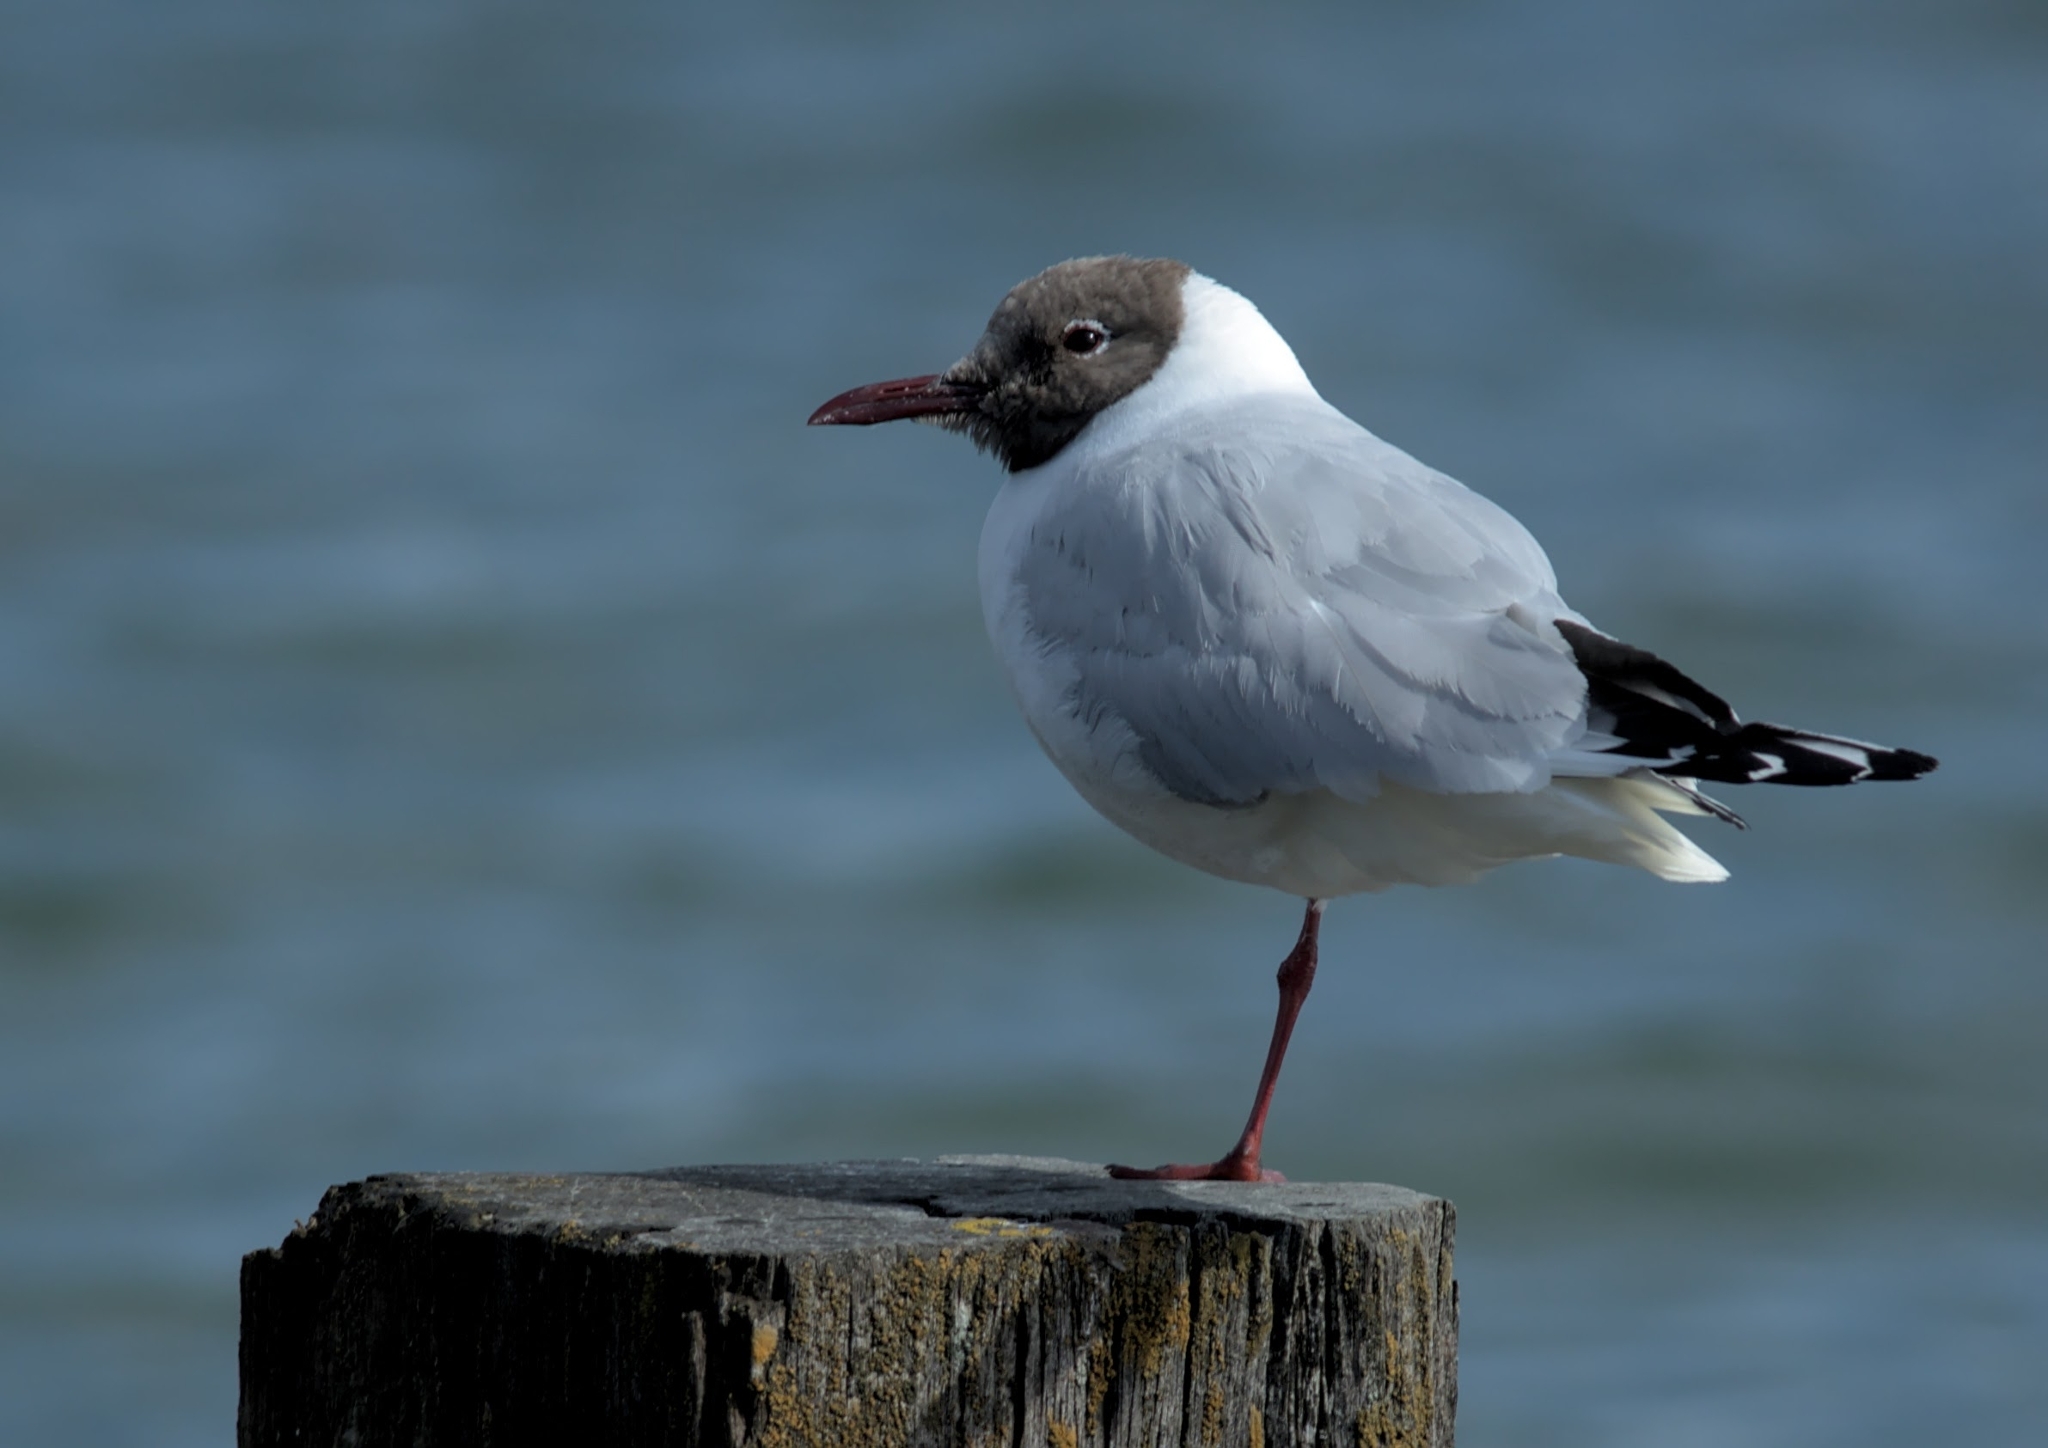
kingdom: Animalia
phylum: Chordata
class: Aves
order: Charadriiformes
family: Laridae
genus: Chroicocephalus
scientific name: Chroicocephalus ridibundus
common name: Black-headed gull
